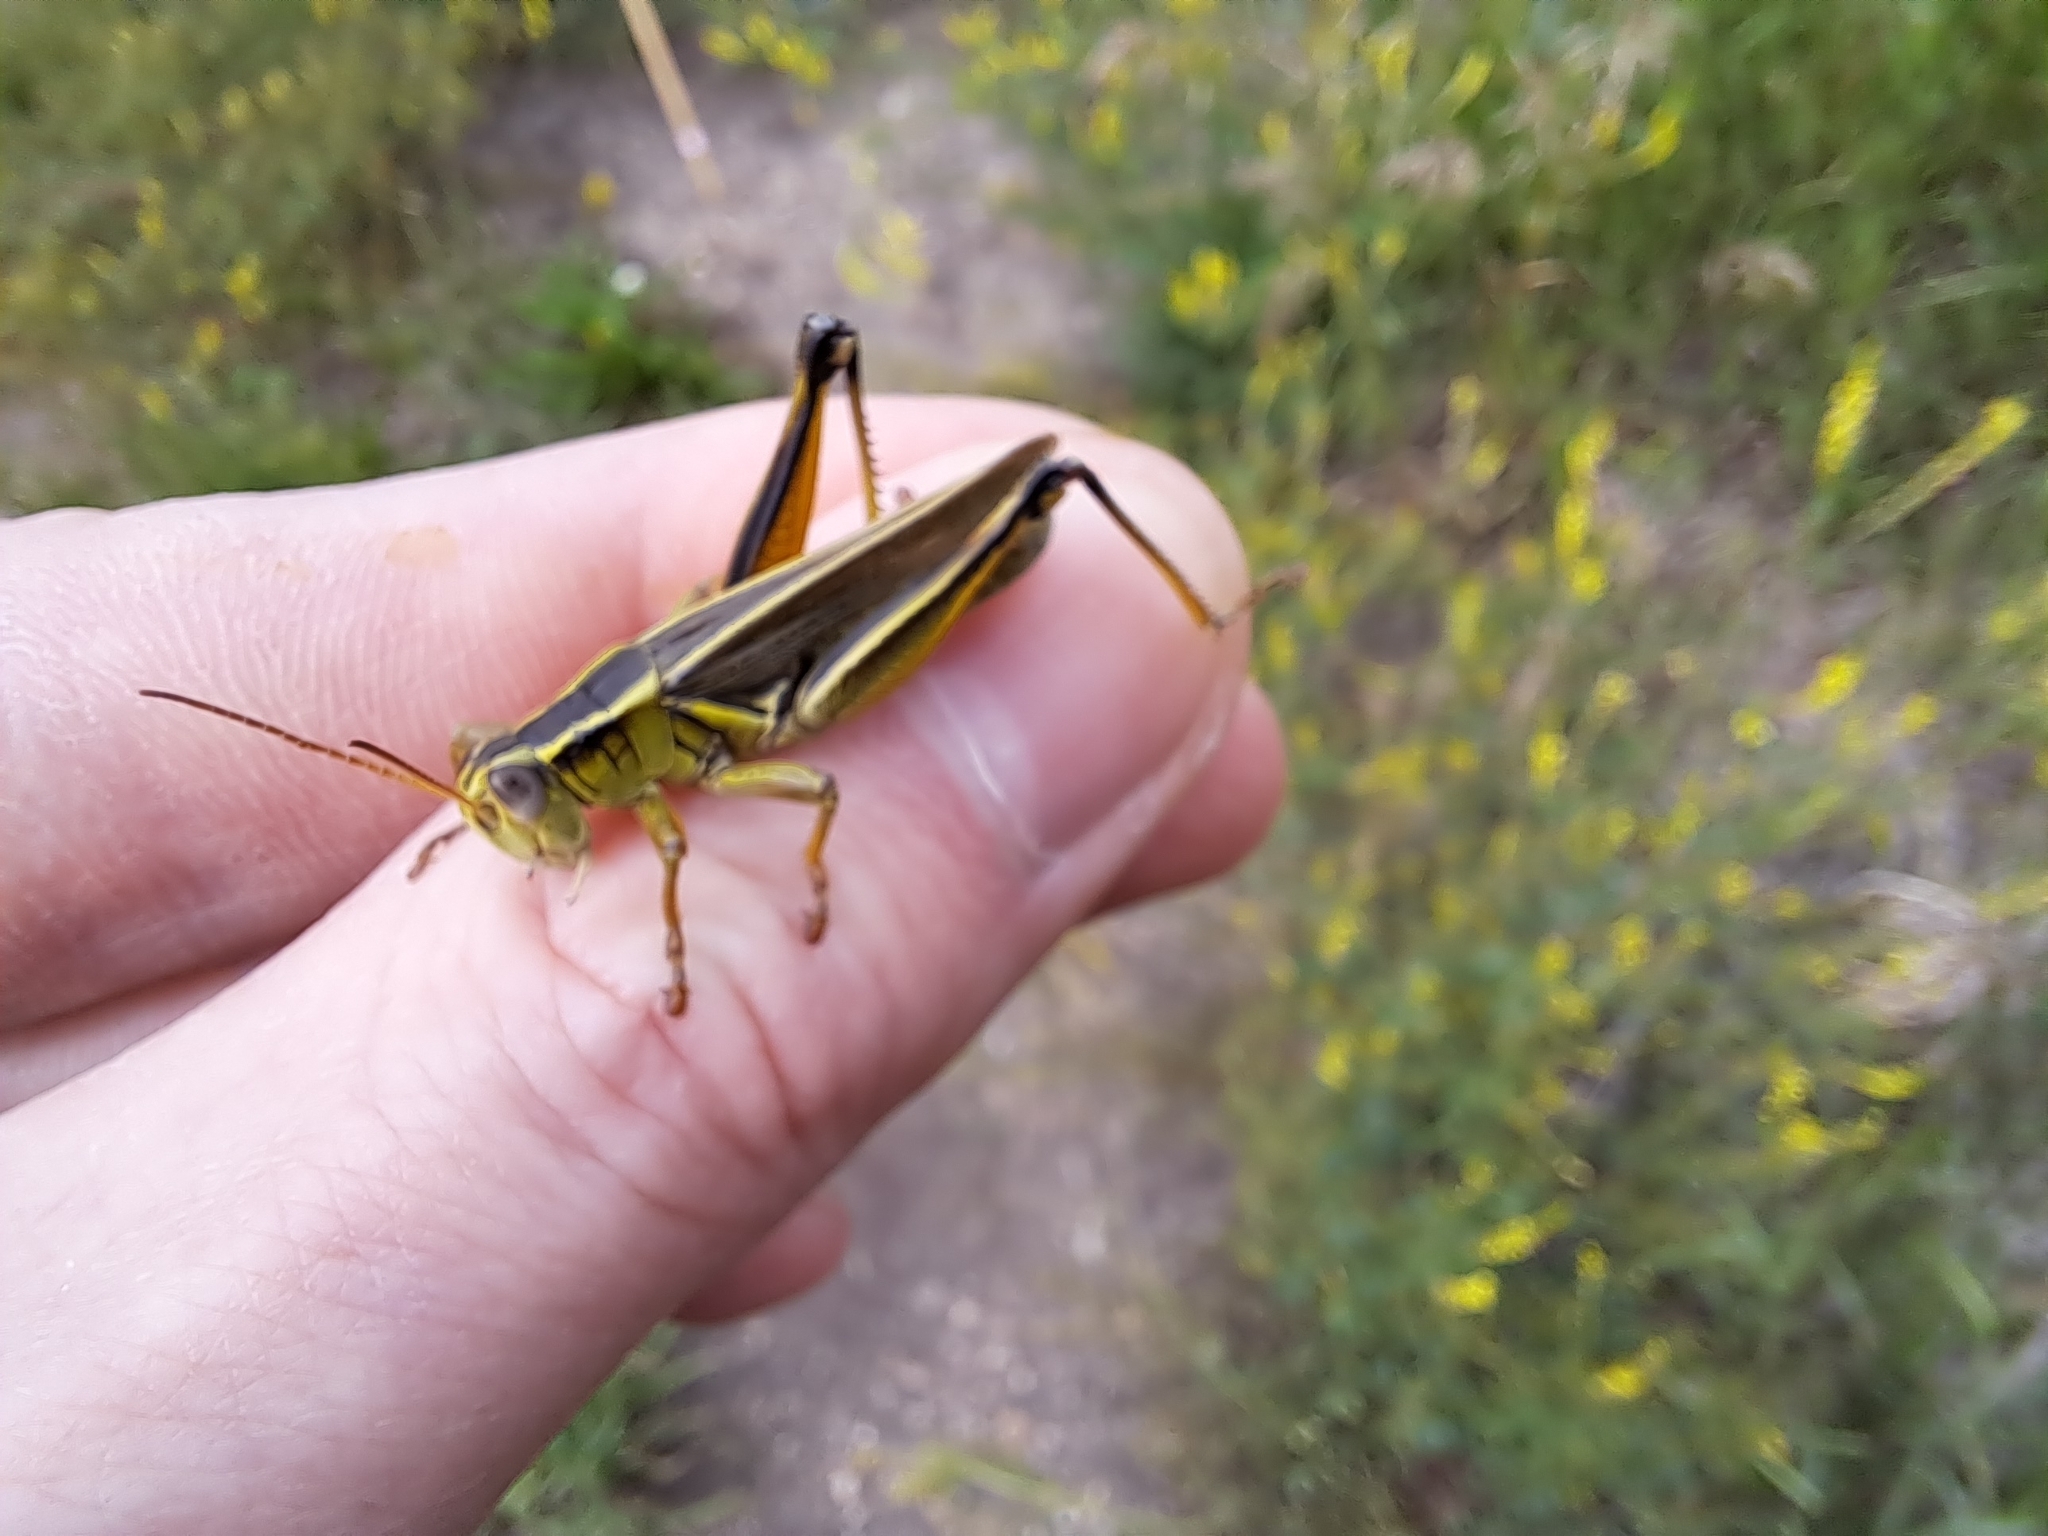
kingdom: Animalia
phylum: Arthropoda
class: Insecta
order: Orthoptera
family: Acrididae
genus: Melanoplus
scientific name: Melanoplus bivittatus
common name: Two-striped grasshopper
